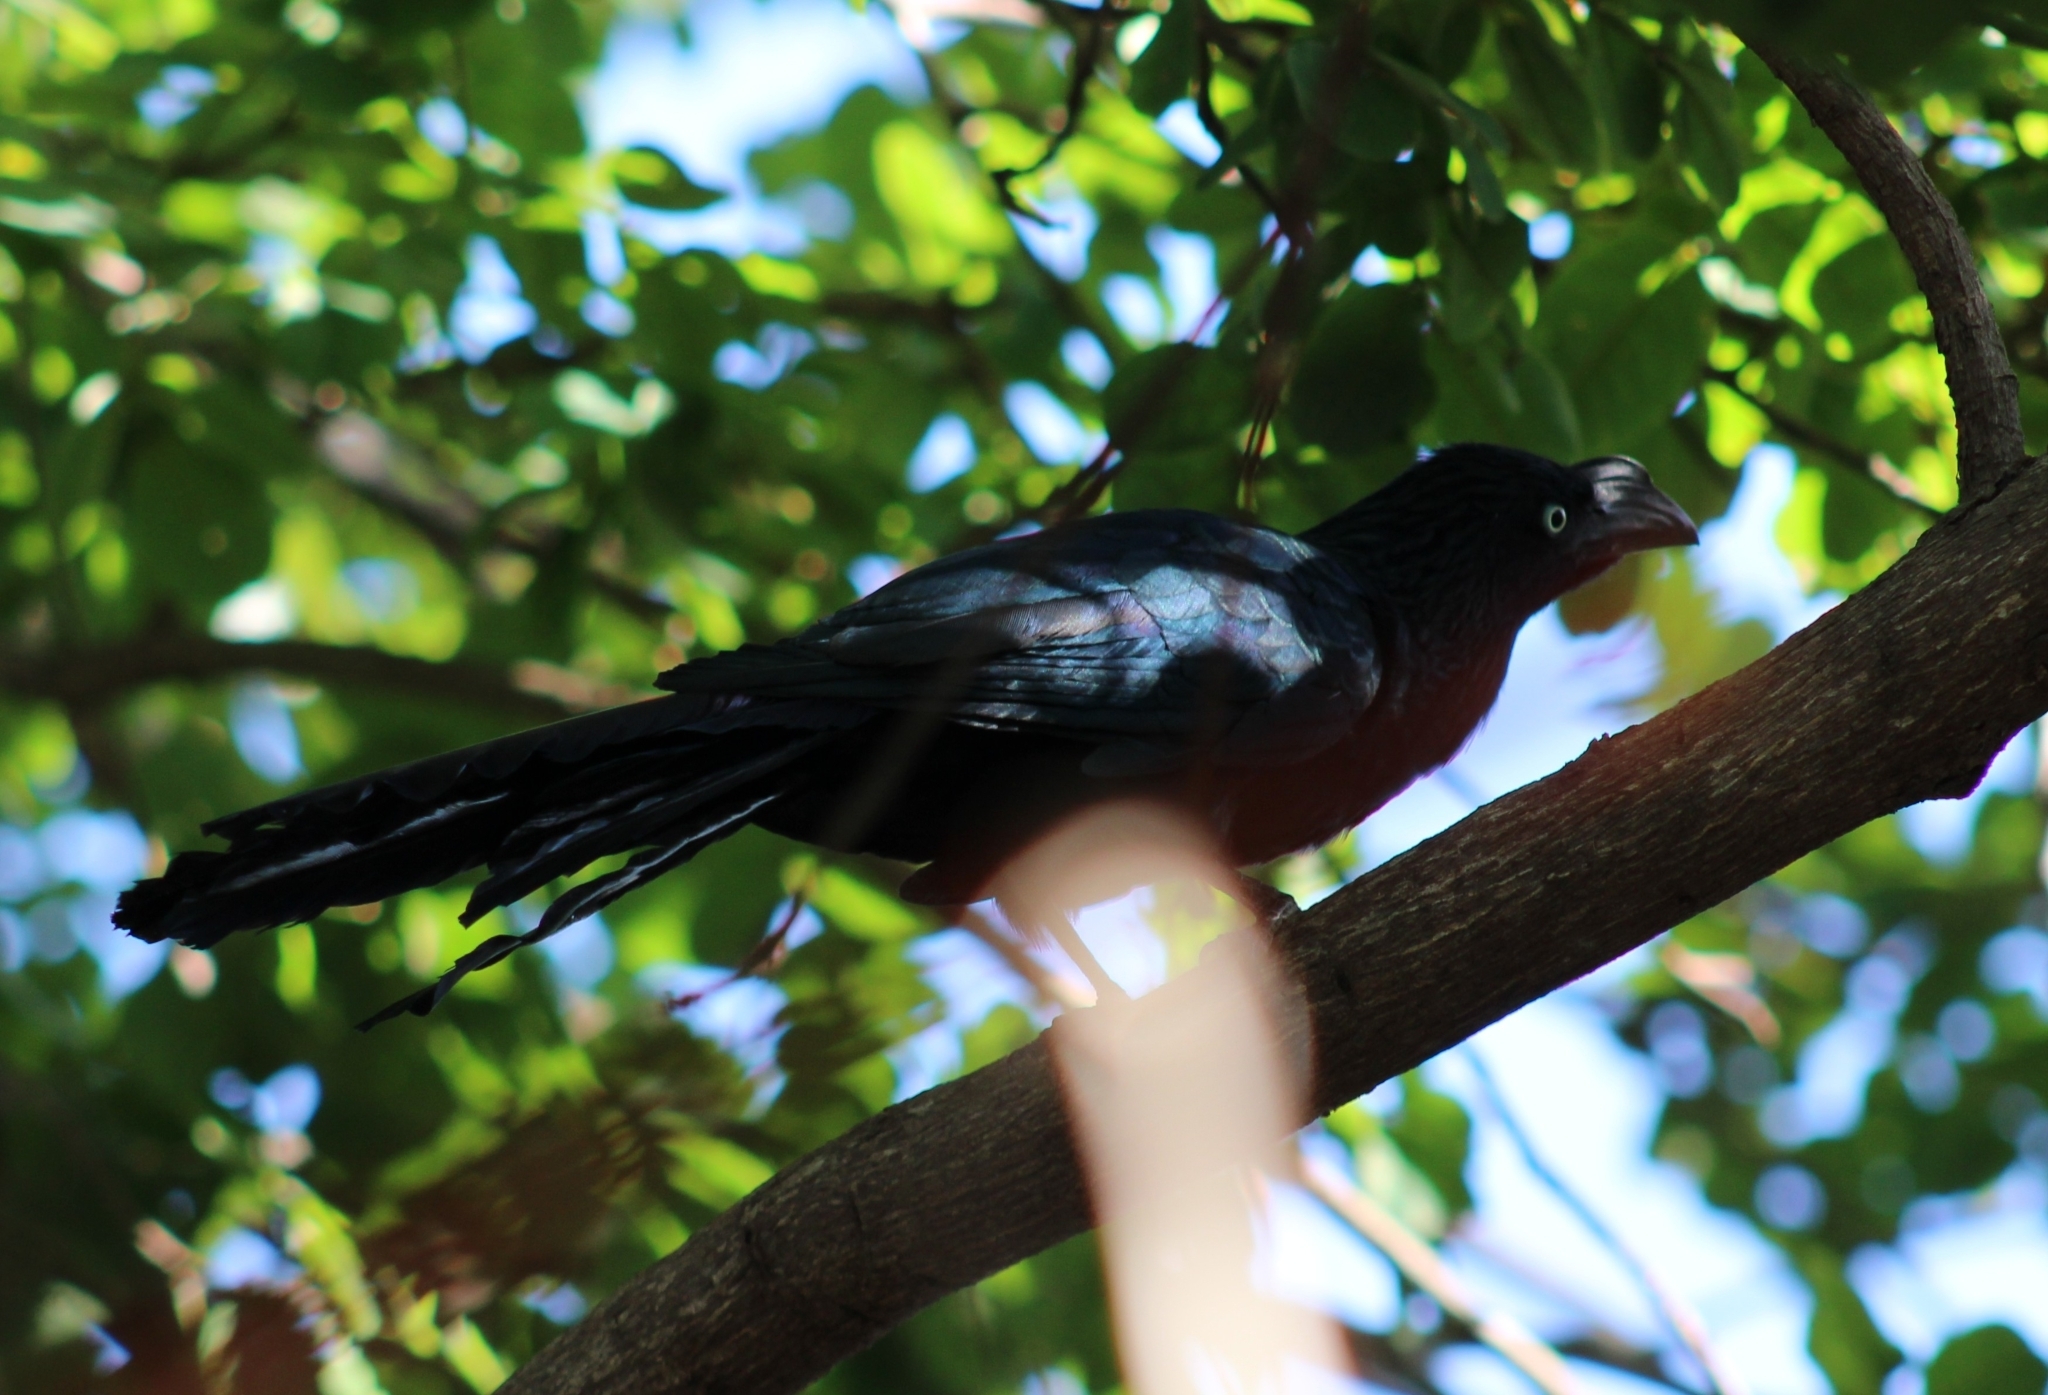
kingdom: Animalia
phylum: Chordata
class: Aves
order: Cuculiformes
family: Cuculidae
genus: Crotophaga
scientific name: Crotophaga major
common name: Greater ani
